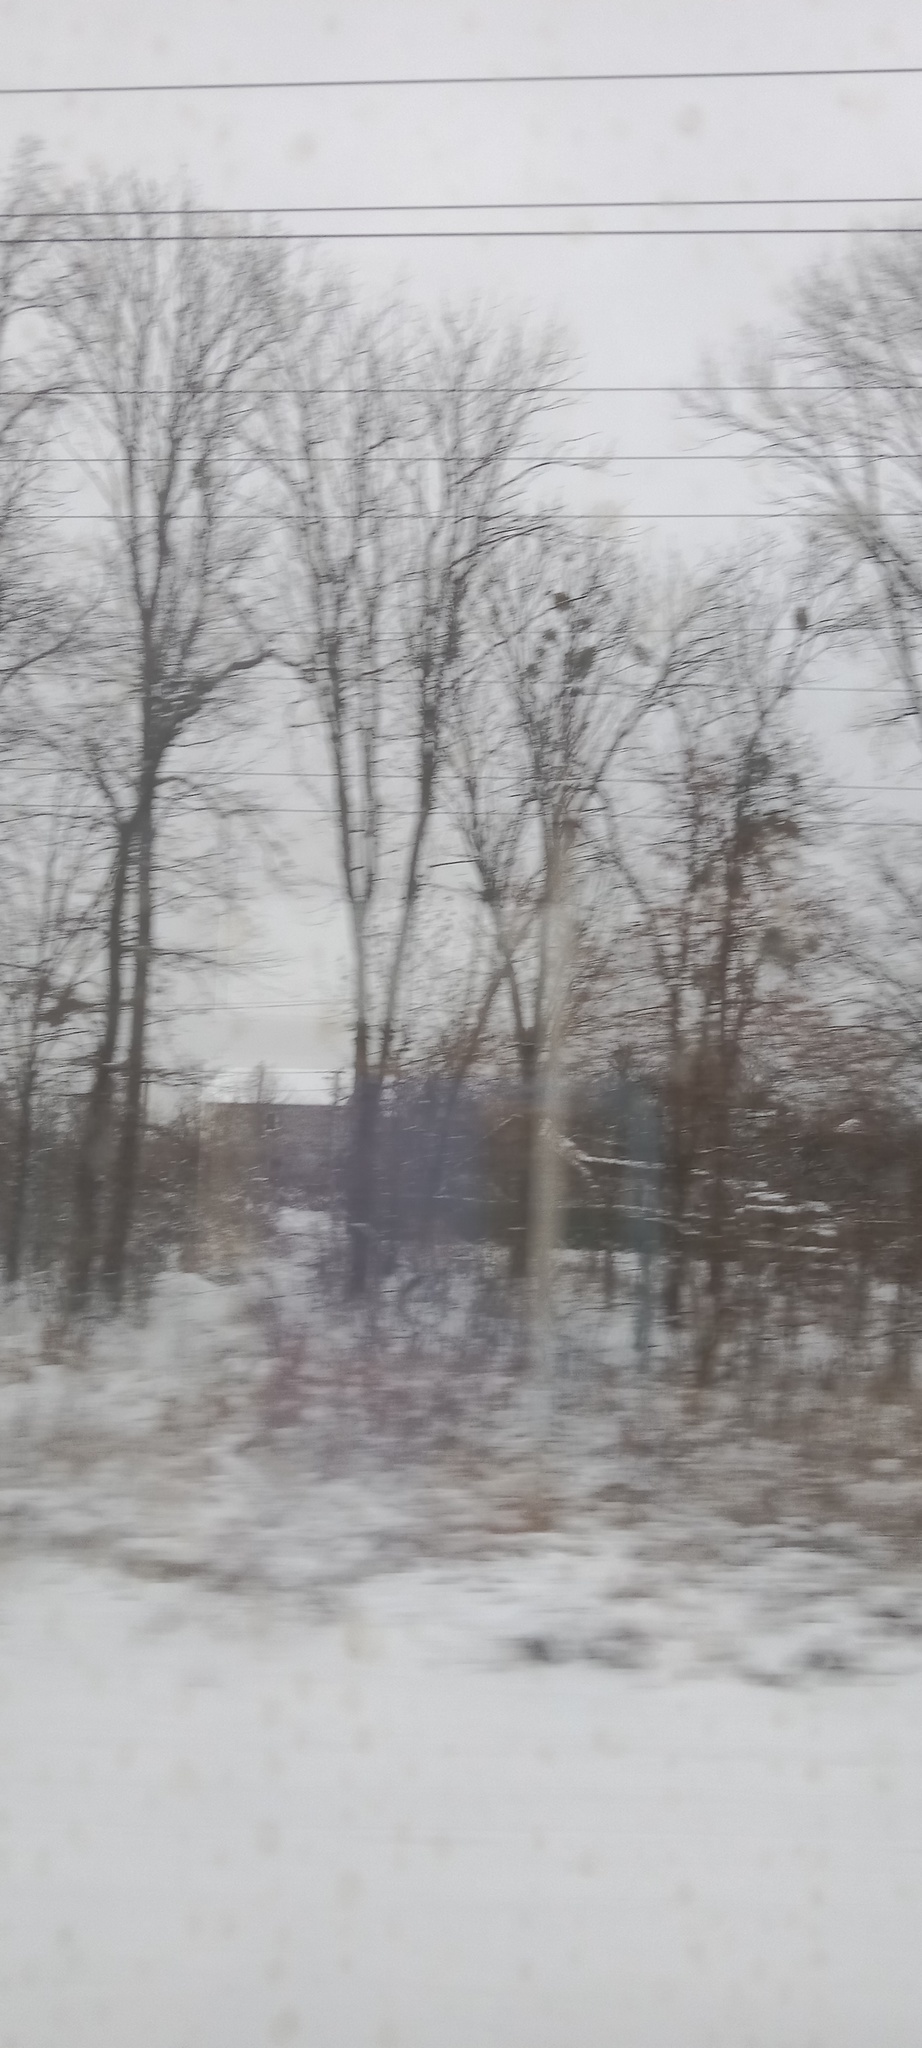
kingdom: Plantae
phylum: Tracheophyta
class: Magnoliopsida
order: Santalales
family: Viscaceae
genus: Viscum
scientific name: Viscum album
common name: Mistletoe
